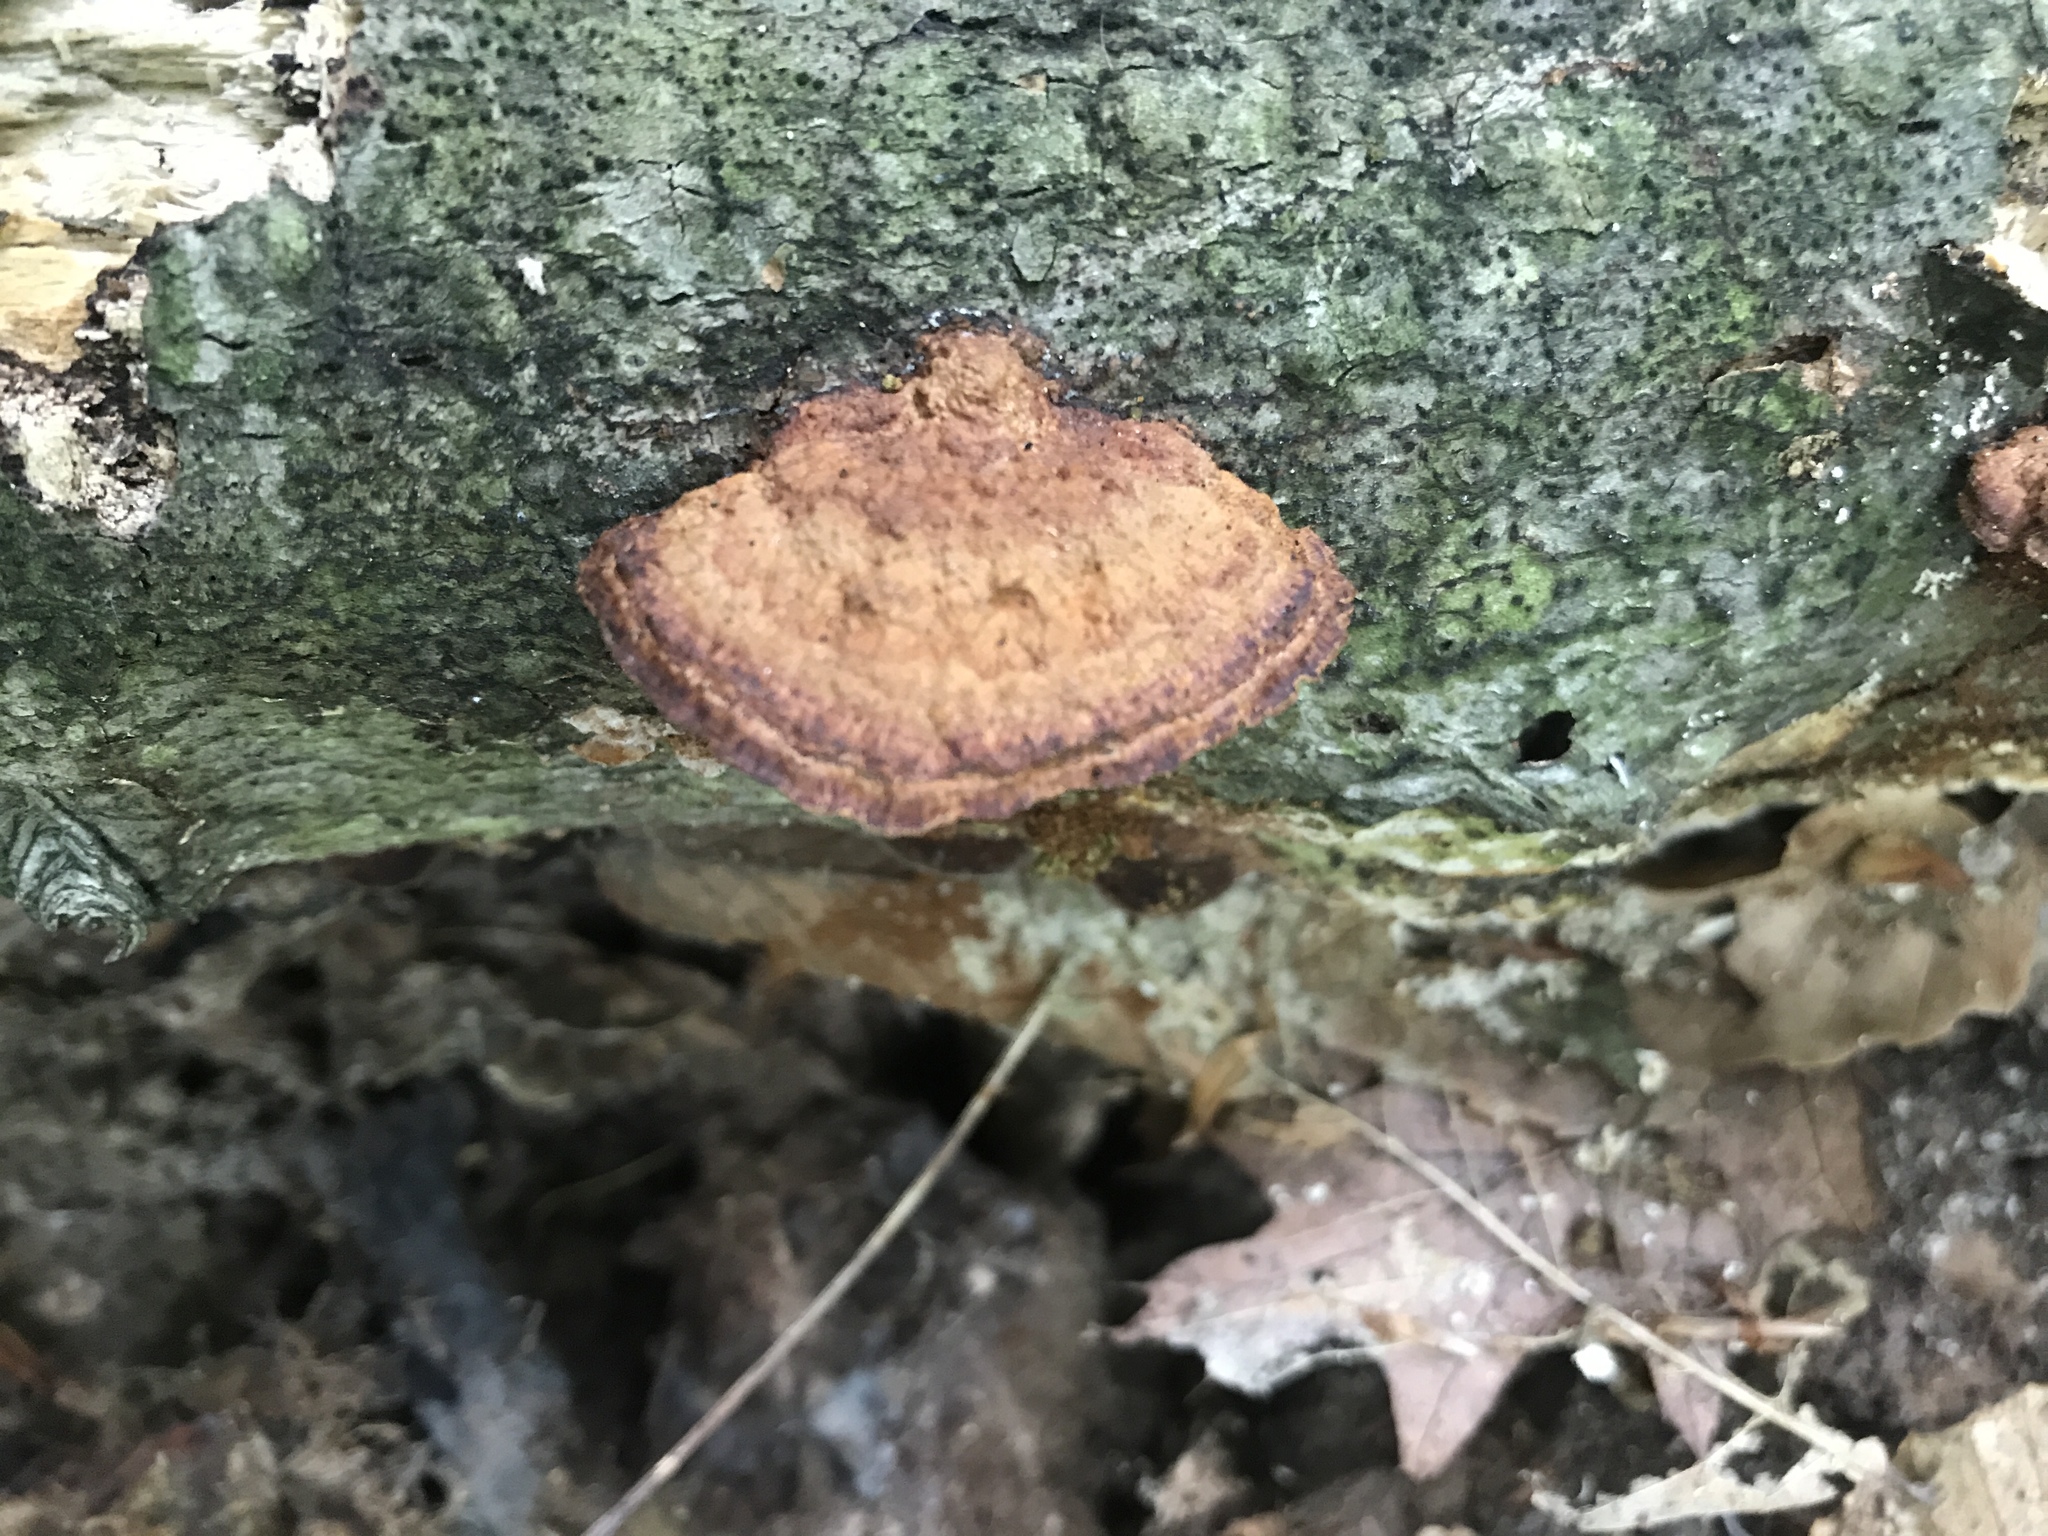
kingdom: Fungi
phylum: Basidiomycota
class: Agaricomycetes
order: Hymenochaetales
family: Hymenochaetaceae
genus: Phellinus
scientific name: Phellinus gilvus
